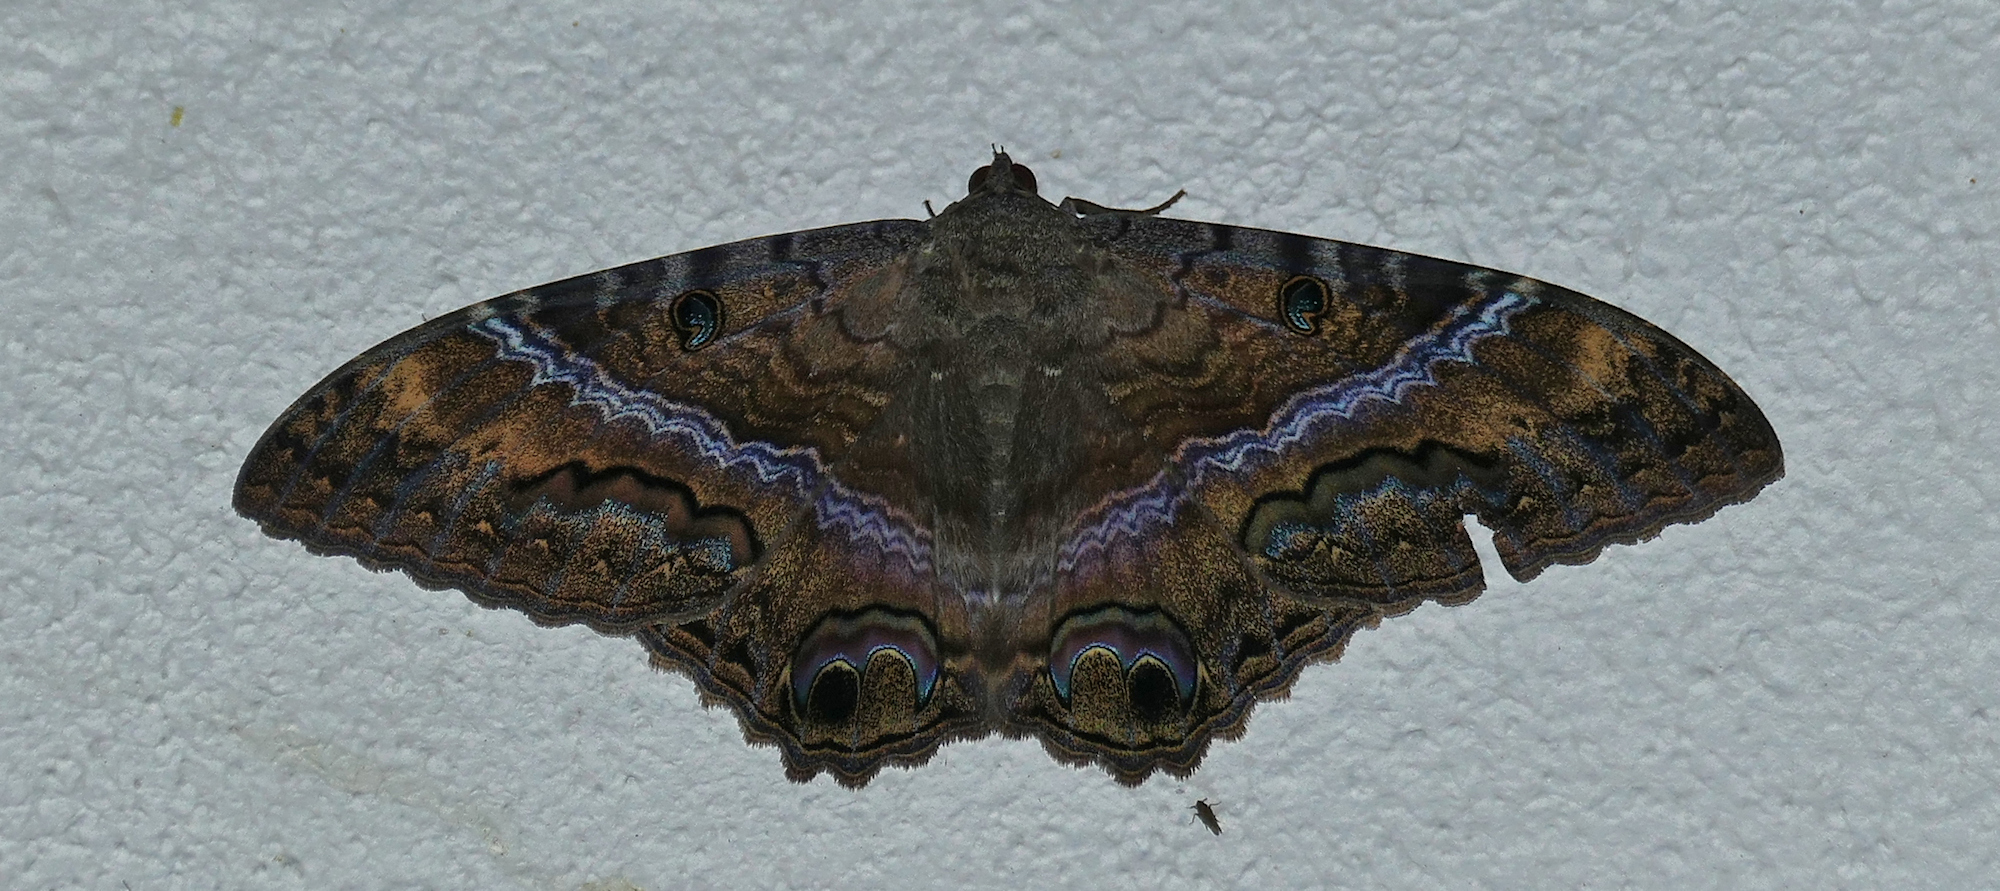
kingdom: Animalia
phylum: Arthropoda
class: Insecta
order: Lepidoptera
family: Erebidae
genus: Ascalapha
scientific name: Ascalapha odorata
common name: Black witch
